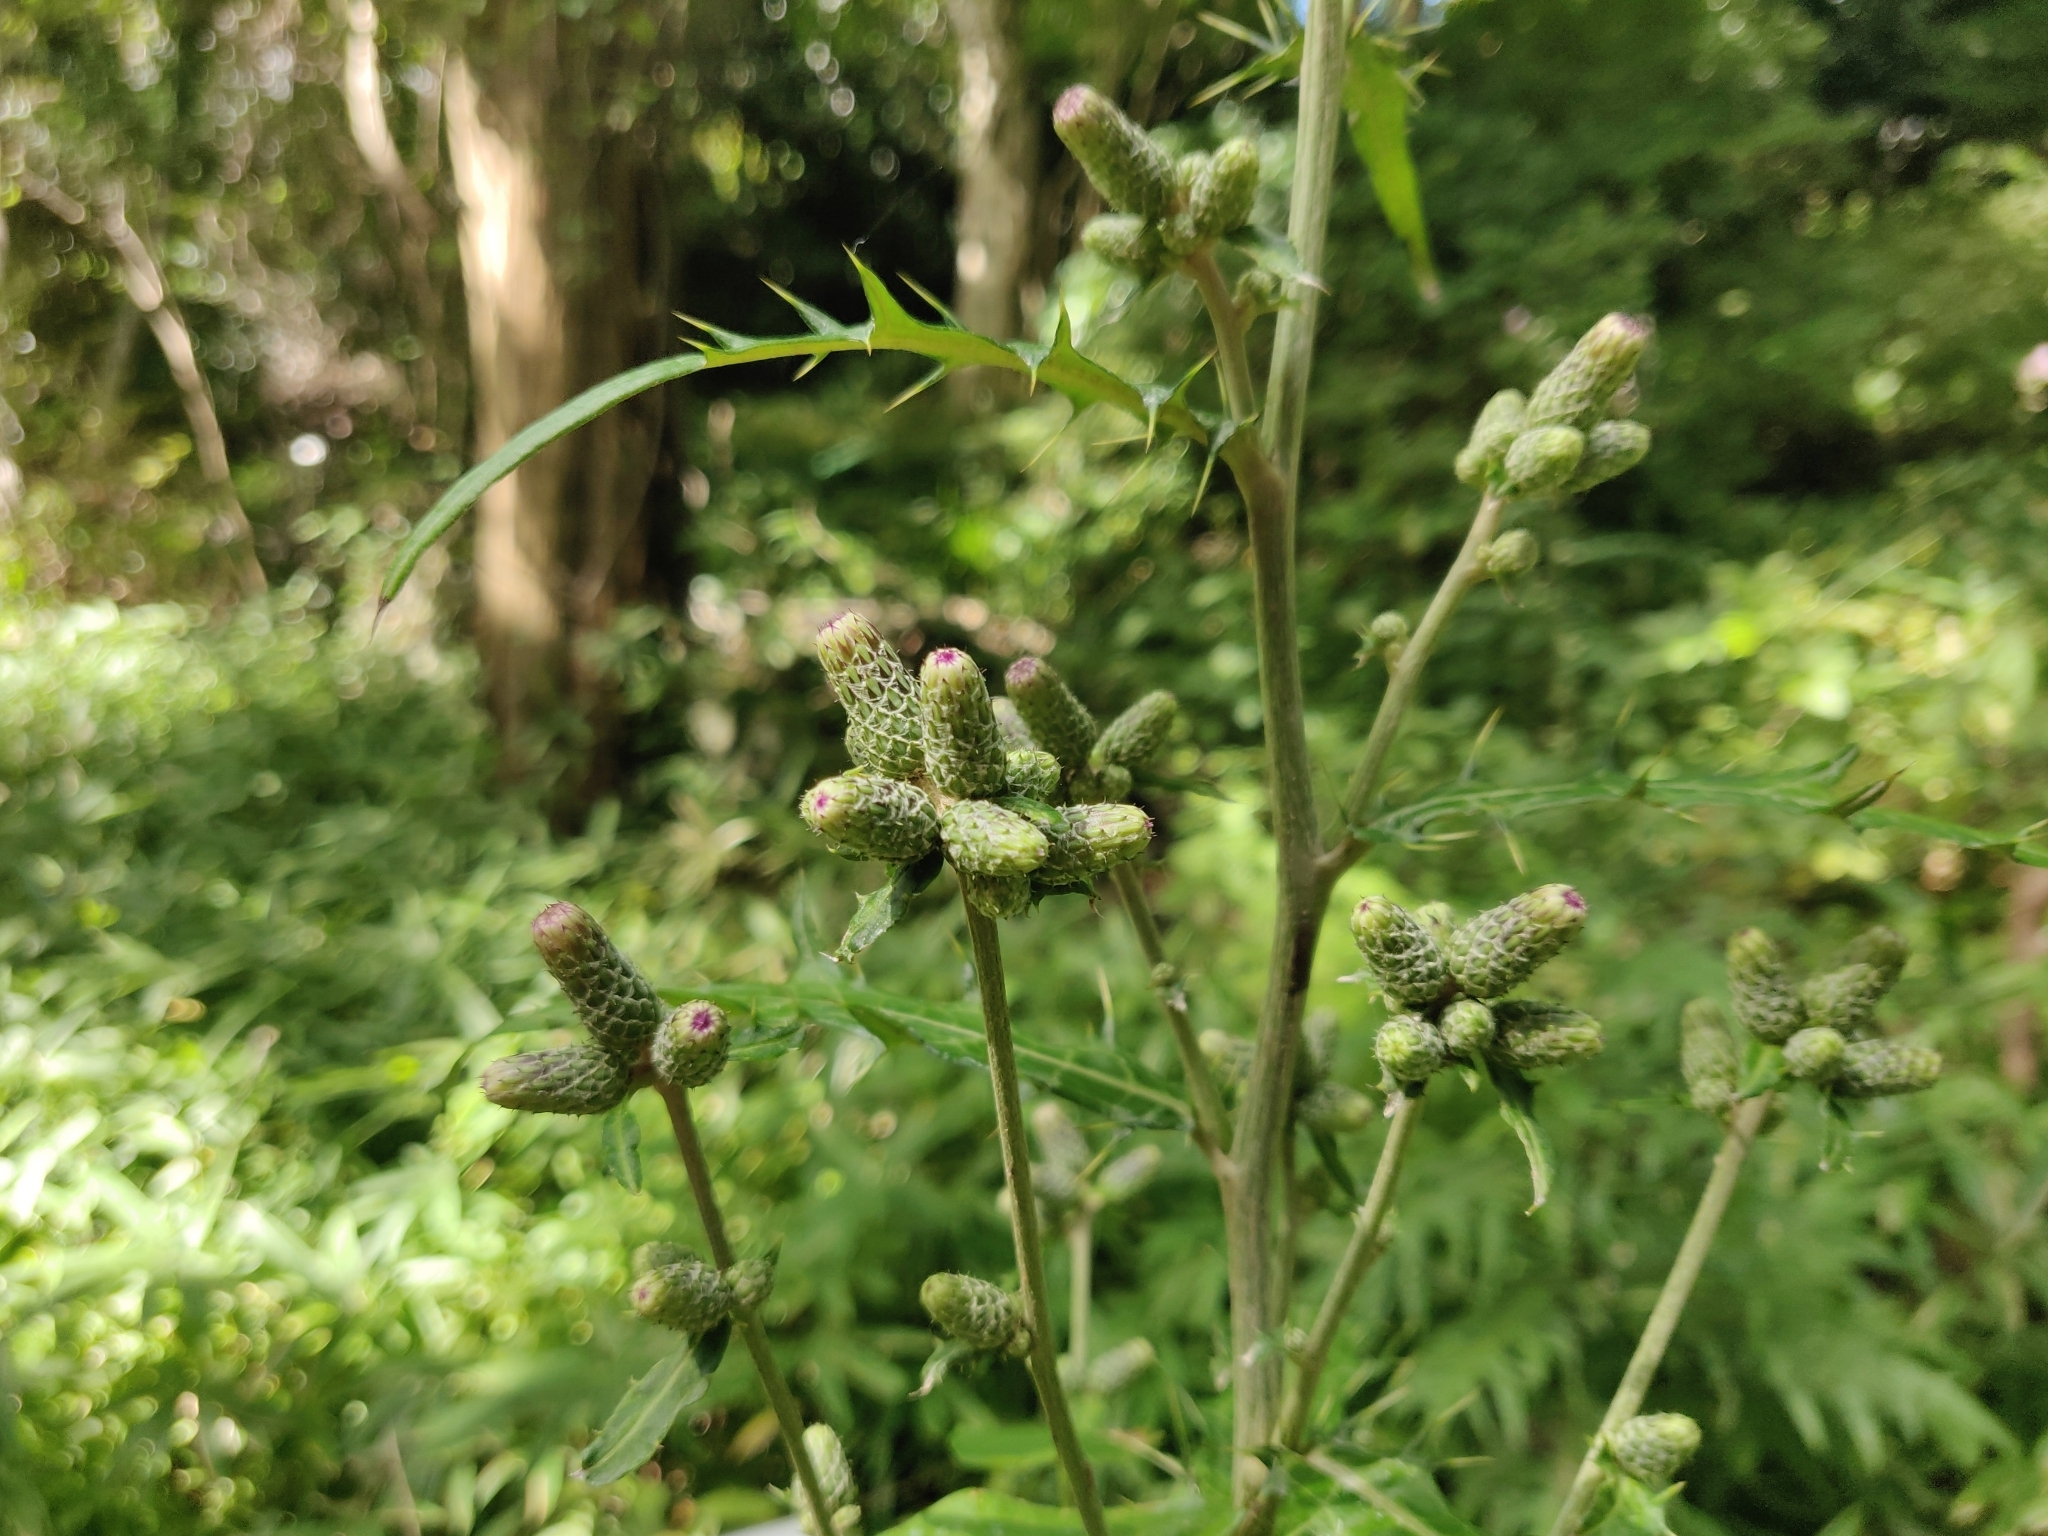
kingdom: Plantae
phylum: Tracheophyta
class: Magnoliopsida
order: Asterales
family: Asteraceae
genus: Cirsium
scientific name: Cirsium microspicatum
